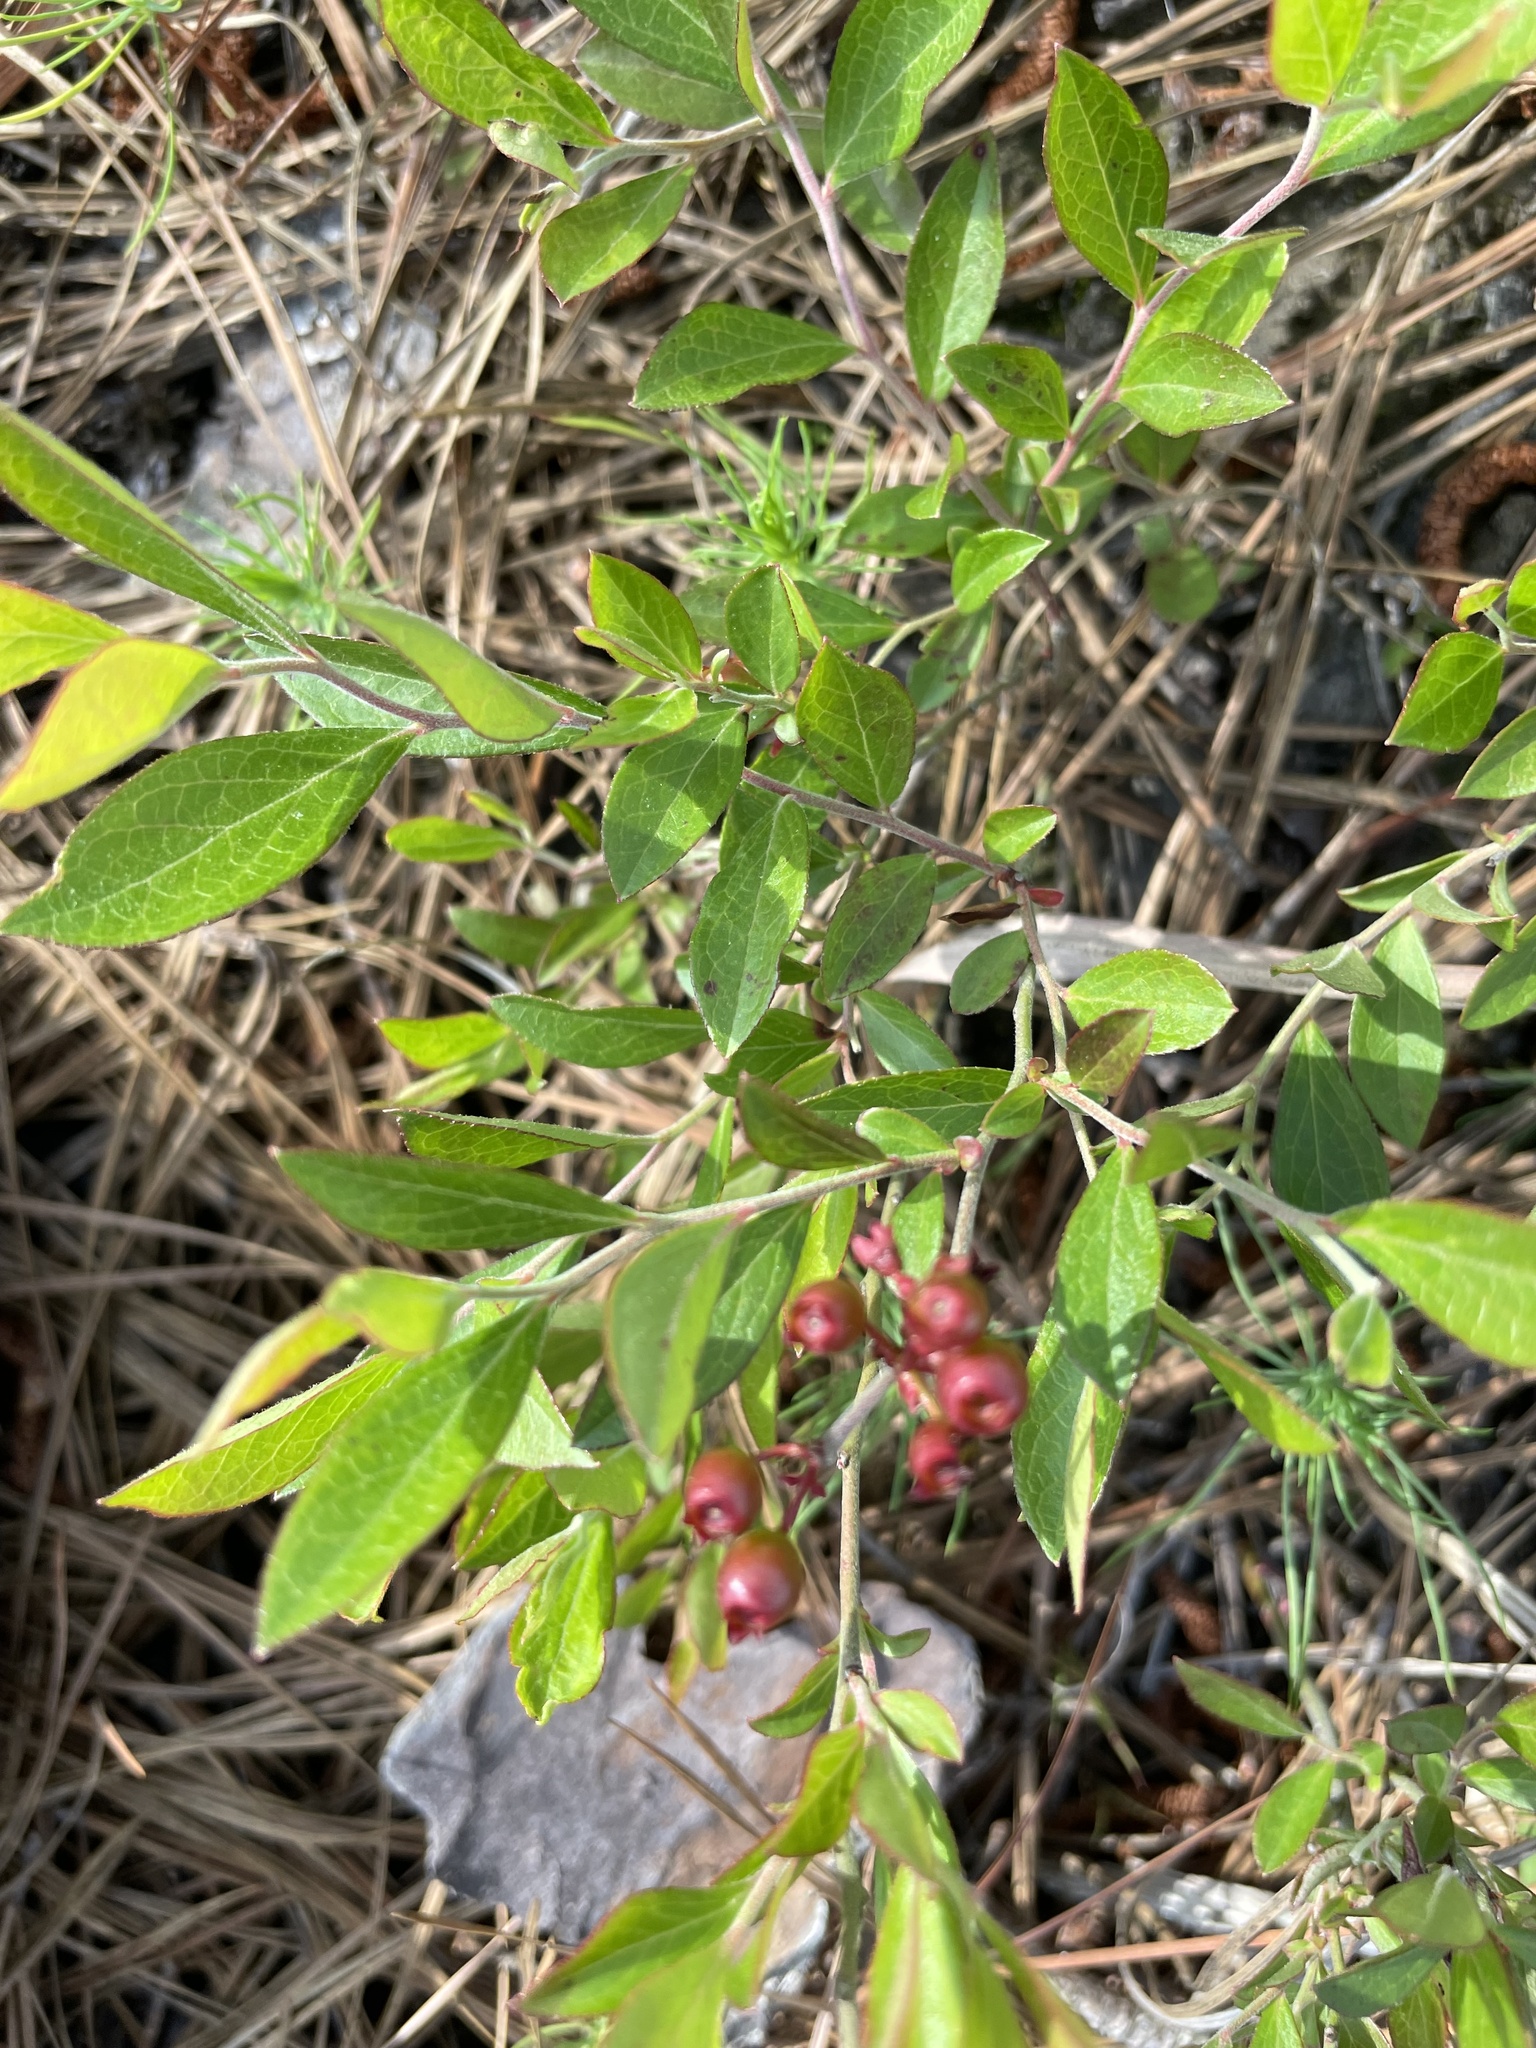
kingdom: Plantae
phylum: Tracheophyta
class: Magnoliopsida
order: Ericales
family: Ericaceae
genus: Vaccinium
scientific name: Vaccinium tenellum
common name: Southern blueberry
